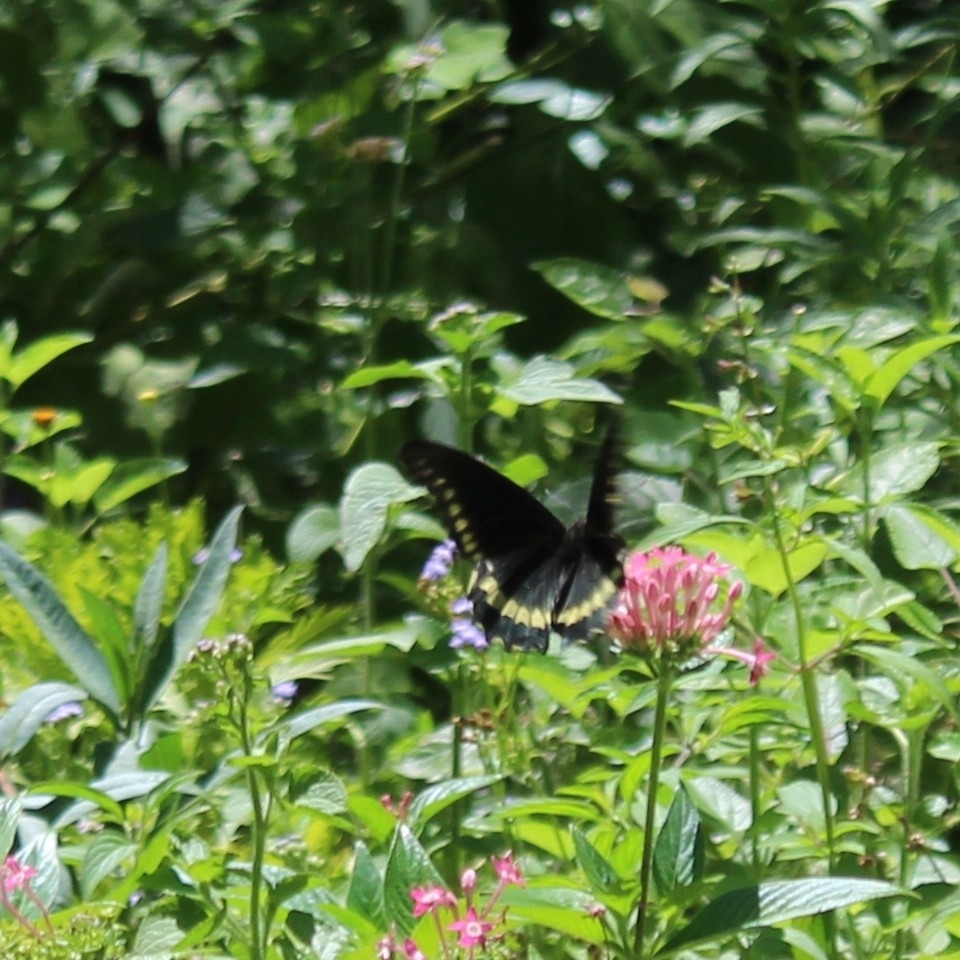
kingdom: Animalia
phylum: Arthropoda
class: Insecta
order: Lepidoptera
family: Papilionidae
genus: Battus
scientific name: Battus polydamas
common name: Polydamas swallowtail
